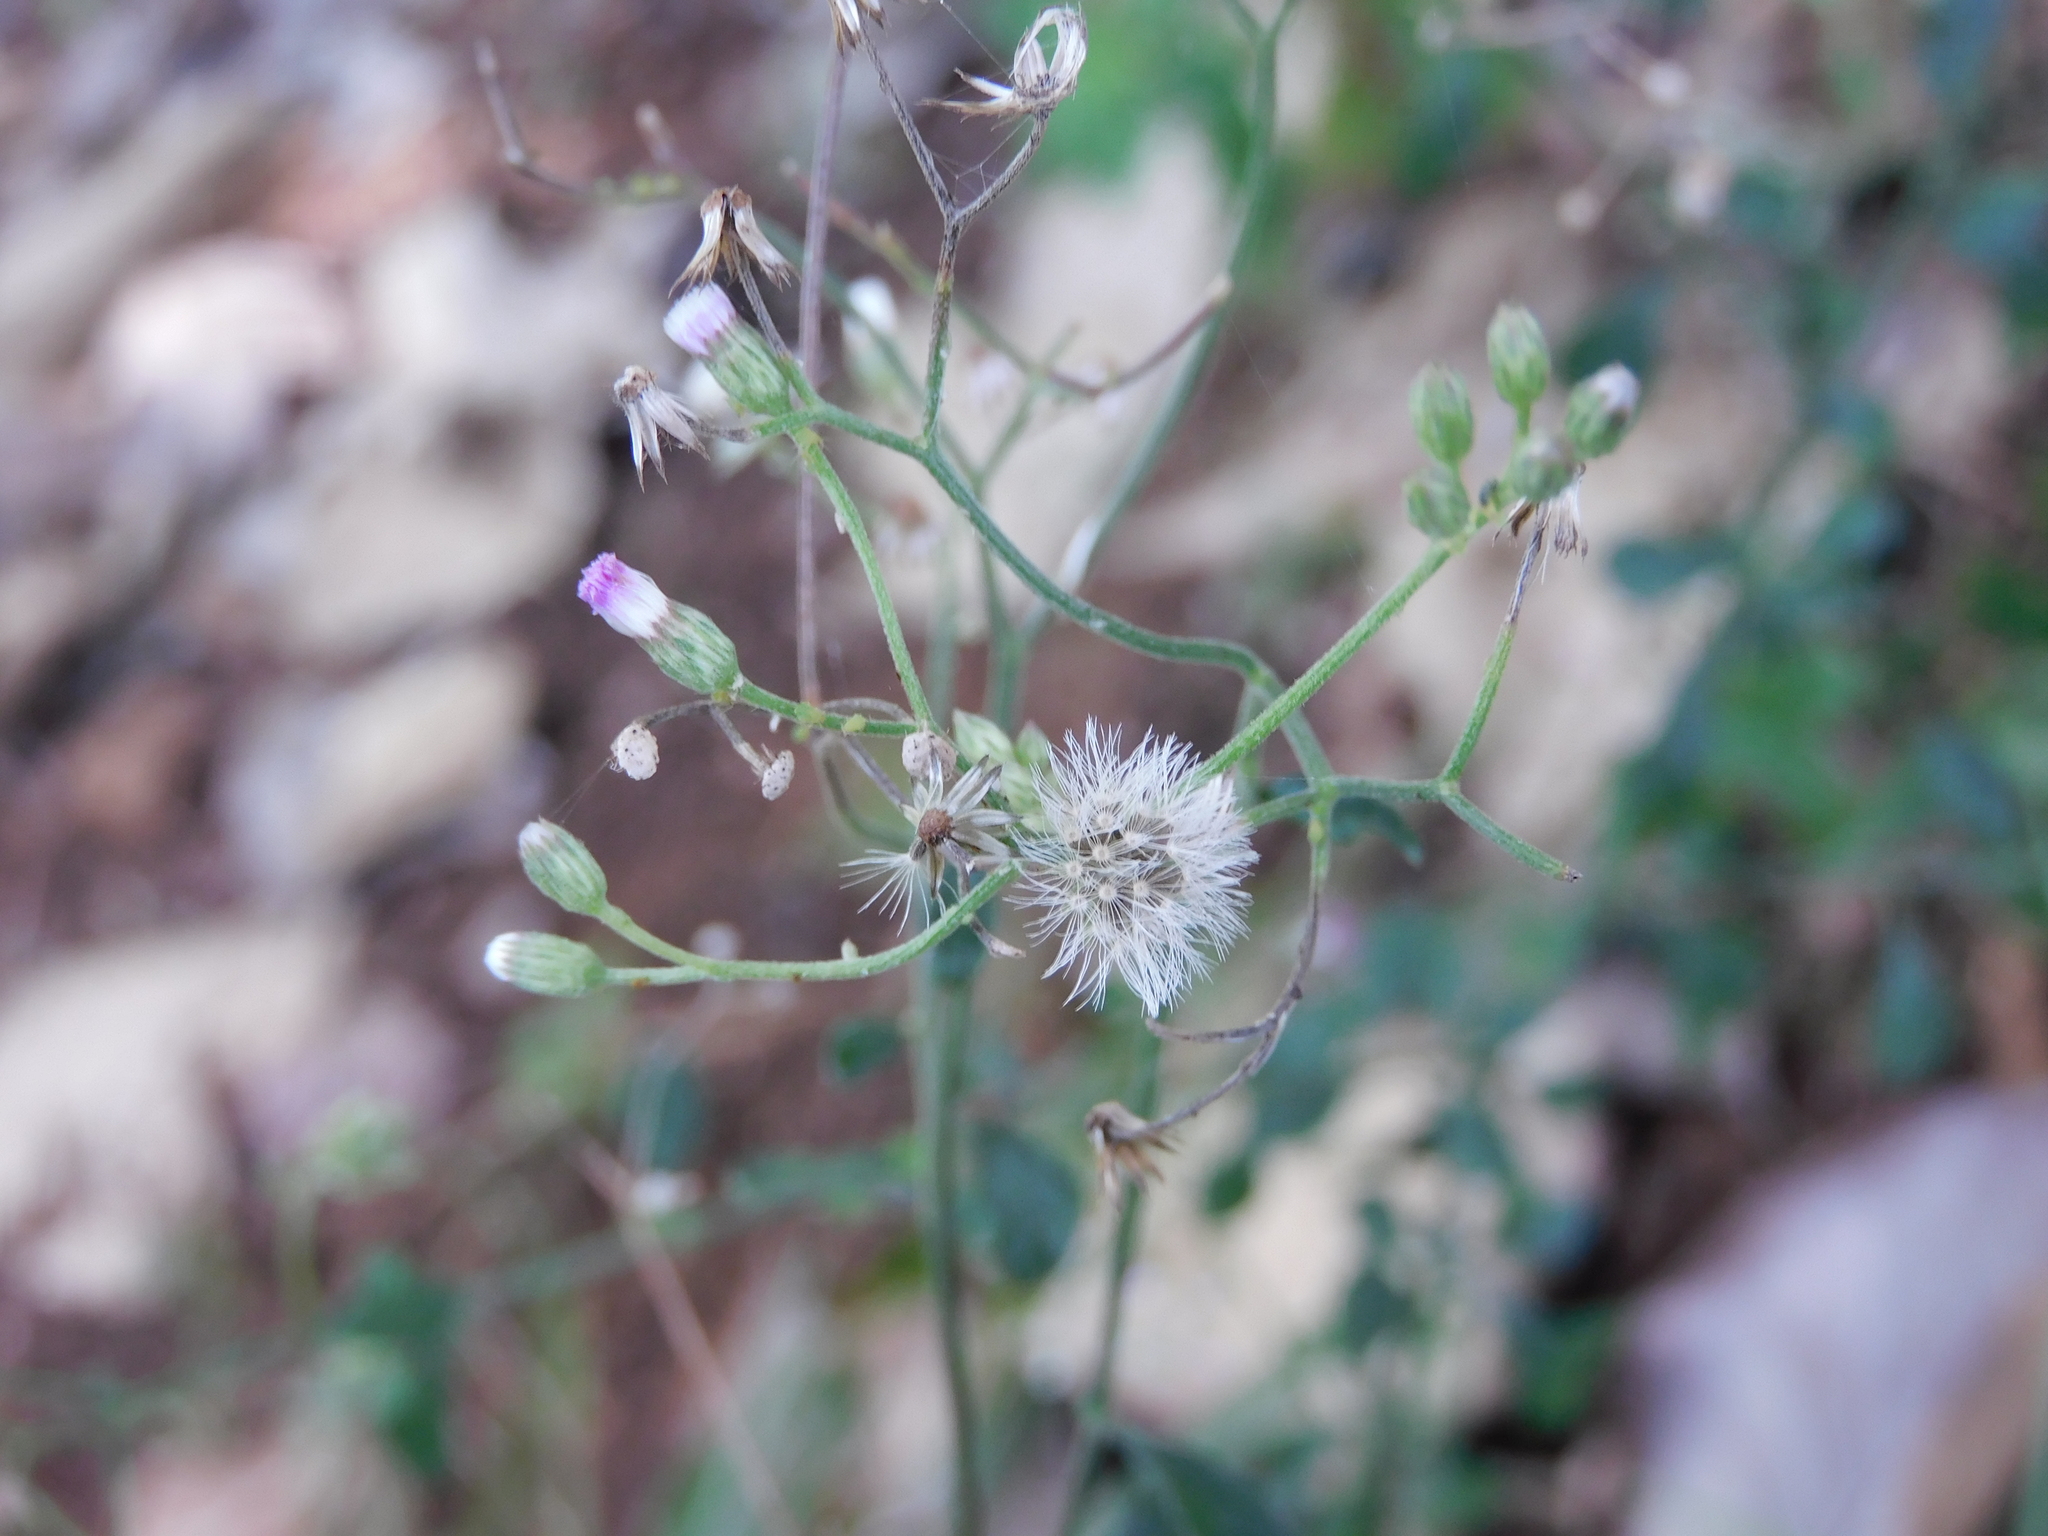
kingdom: Plantae
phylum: Tracheophyta
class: Magnoliopsida
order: Asterales
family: Asteraceae
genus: Cyanthillium
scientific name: Cyanthillium cinereum
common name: Little ironweed
